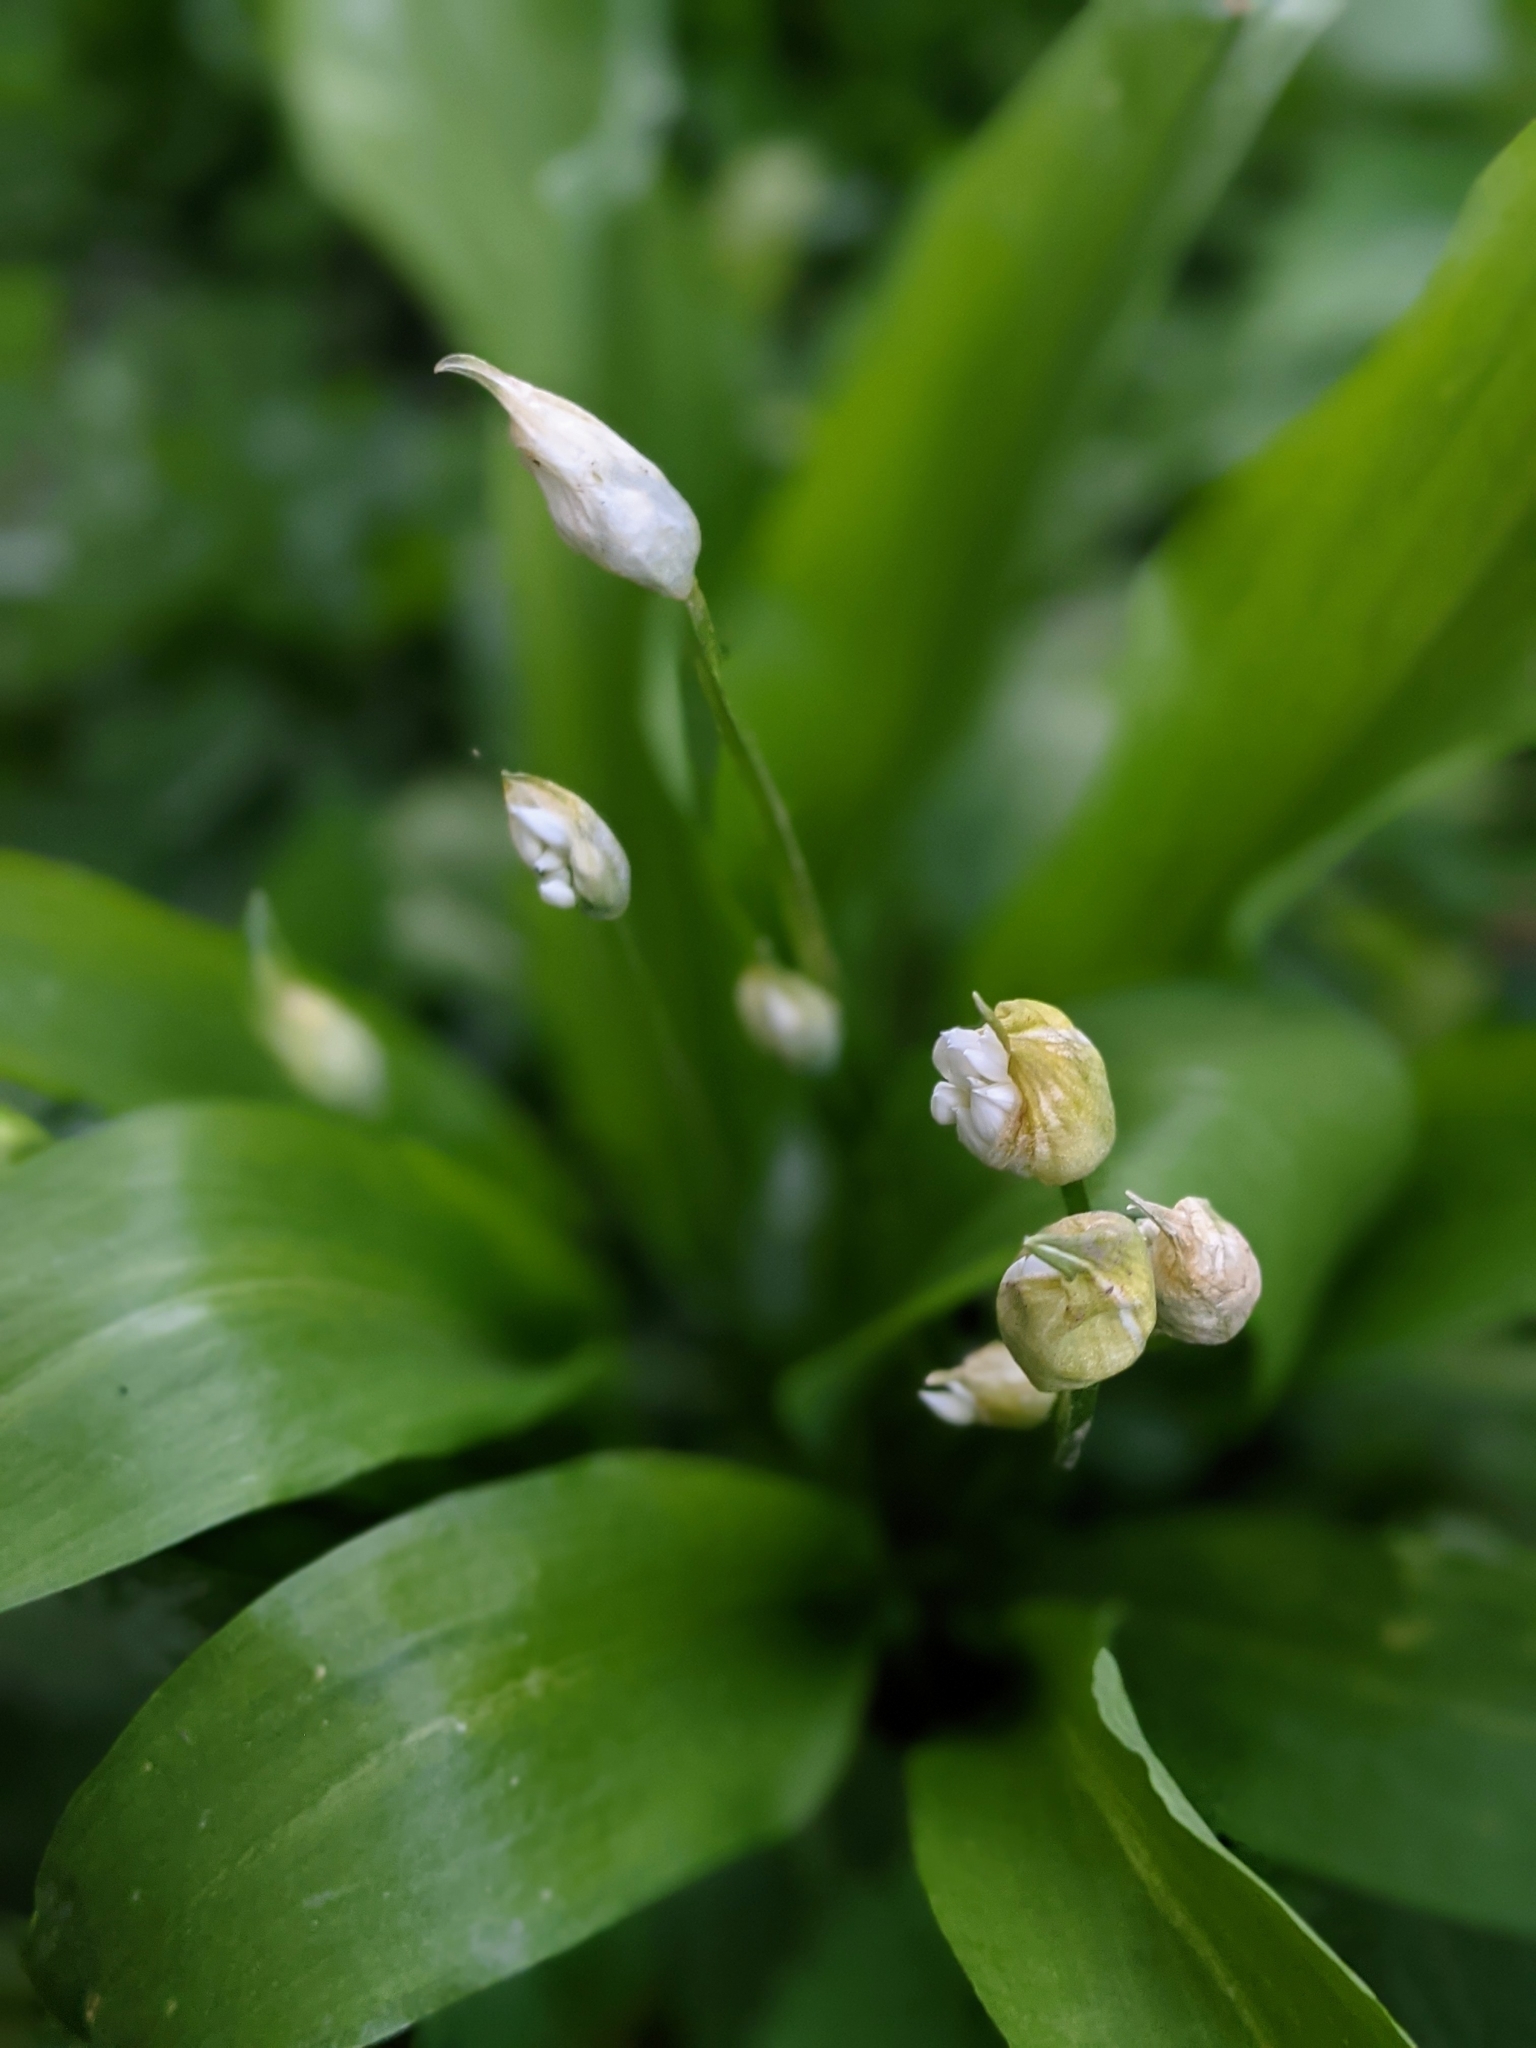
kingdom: Plantae
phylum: Tracheophyta
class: Liliopsida
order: Asparagales
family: Amaryllidaceae
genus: Allium
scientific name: Allium ursinum
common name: Ramsons
